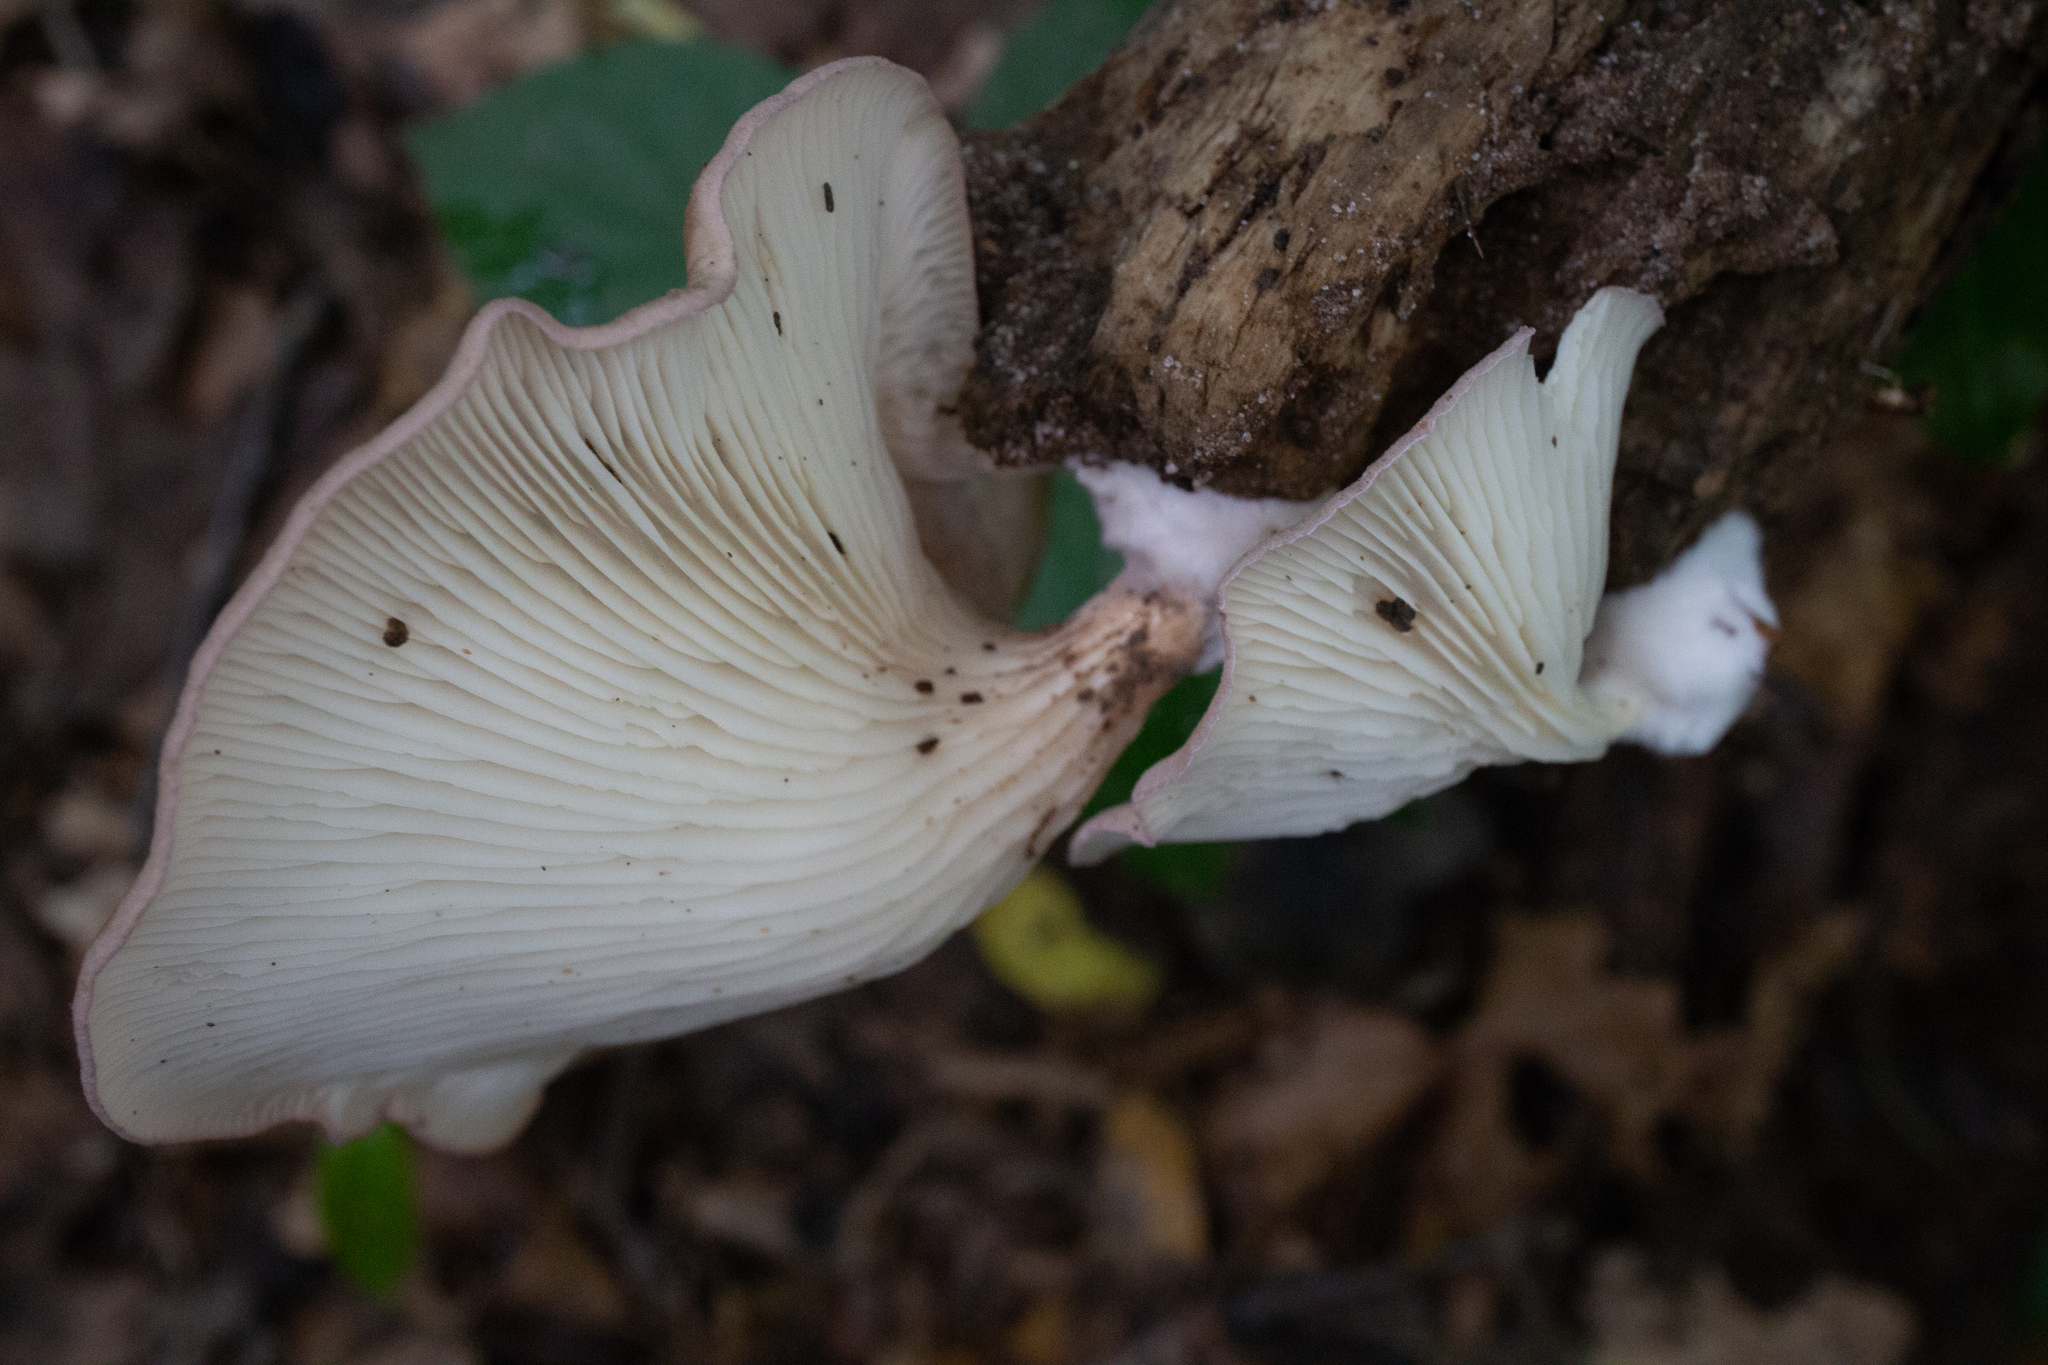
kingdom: Fungi
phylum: Basidiomycota
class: Agaricomycetes
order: Agaricales
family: Pleurotaceae
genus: Pleurotus
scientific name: Pleurotus ostreatus
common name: Oyster mushroom
